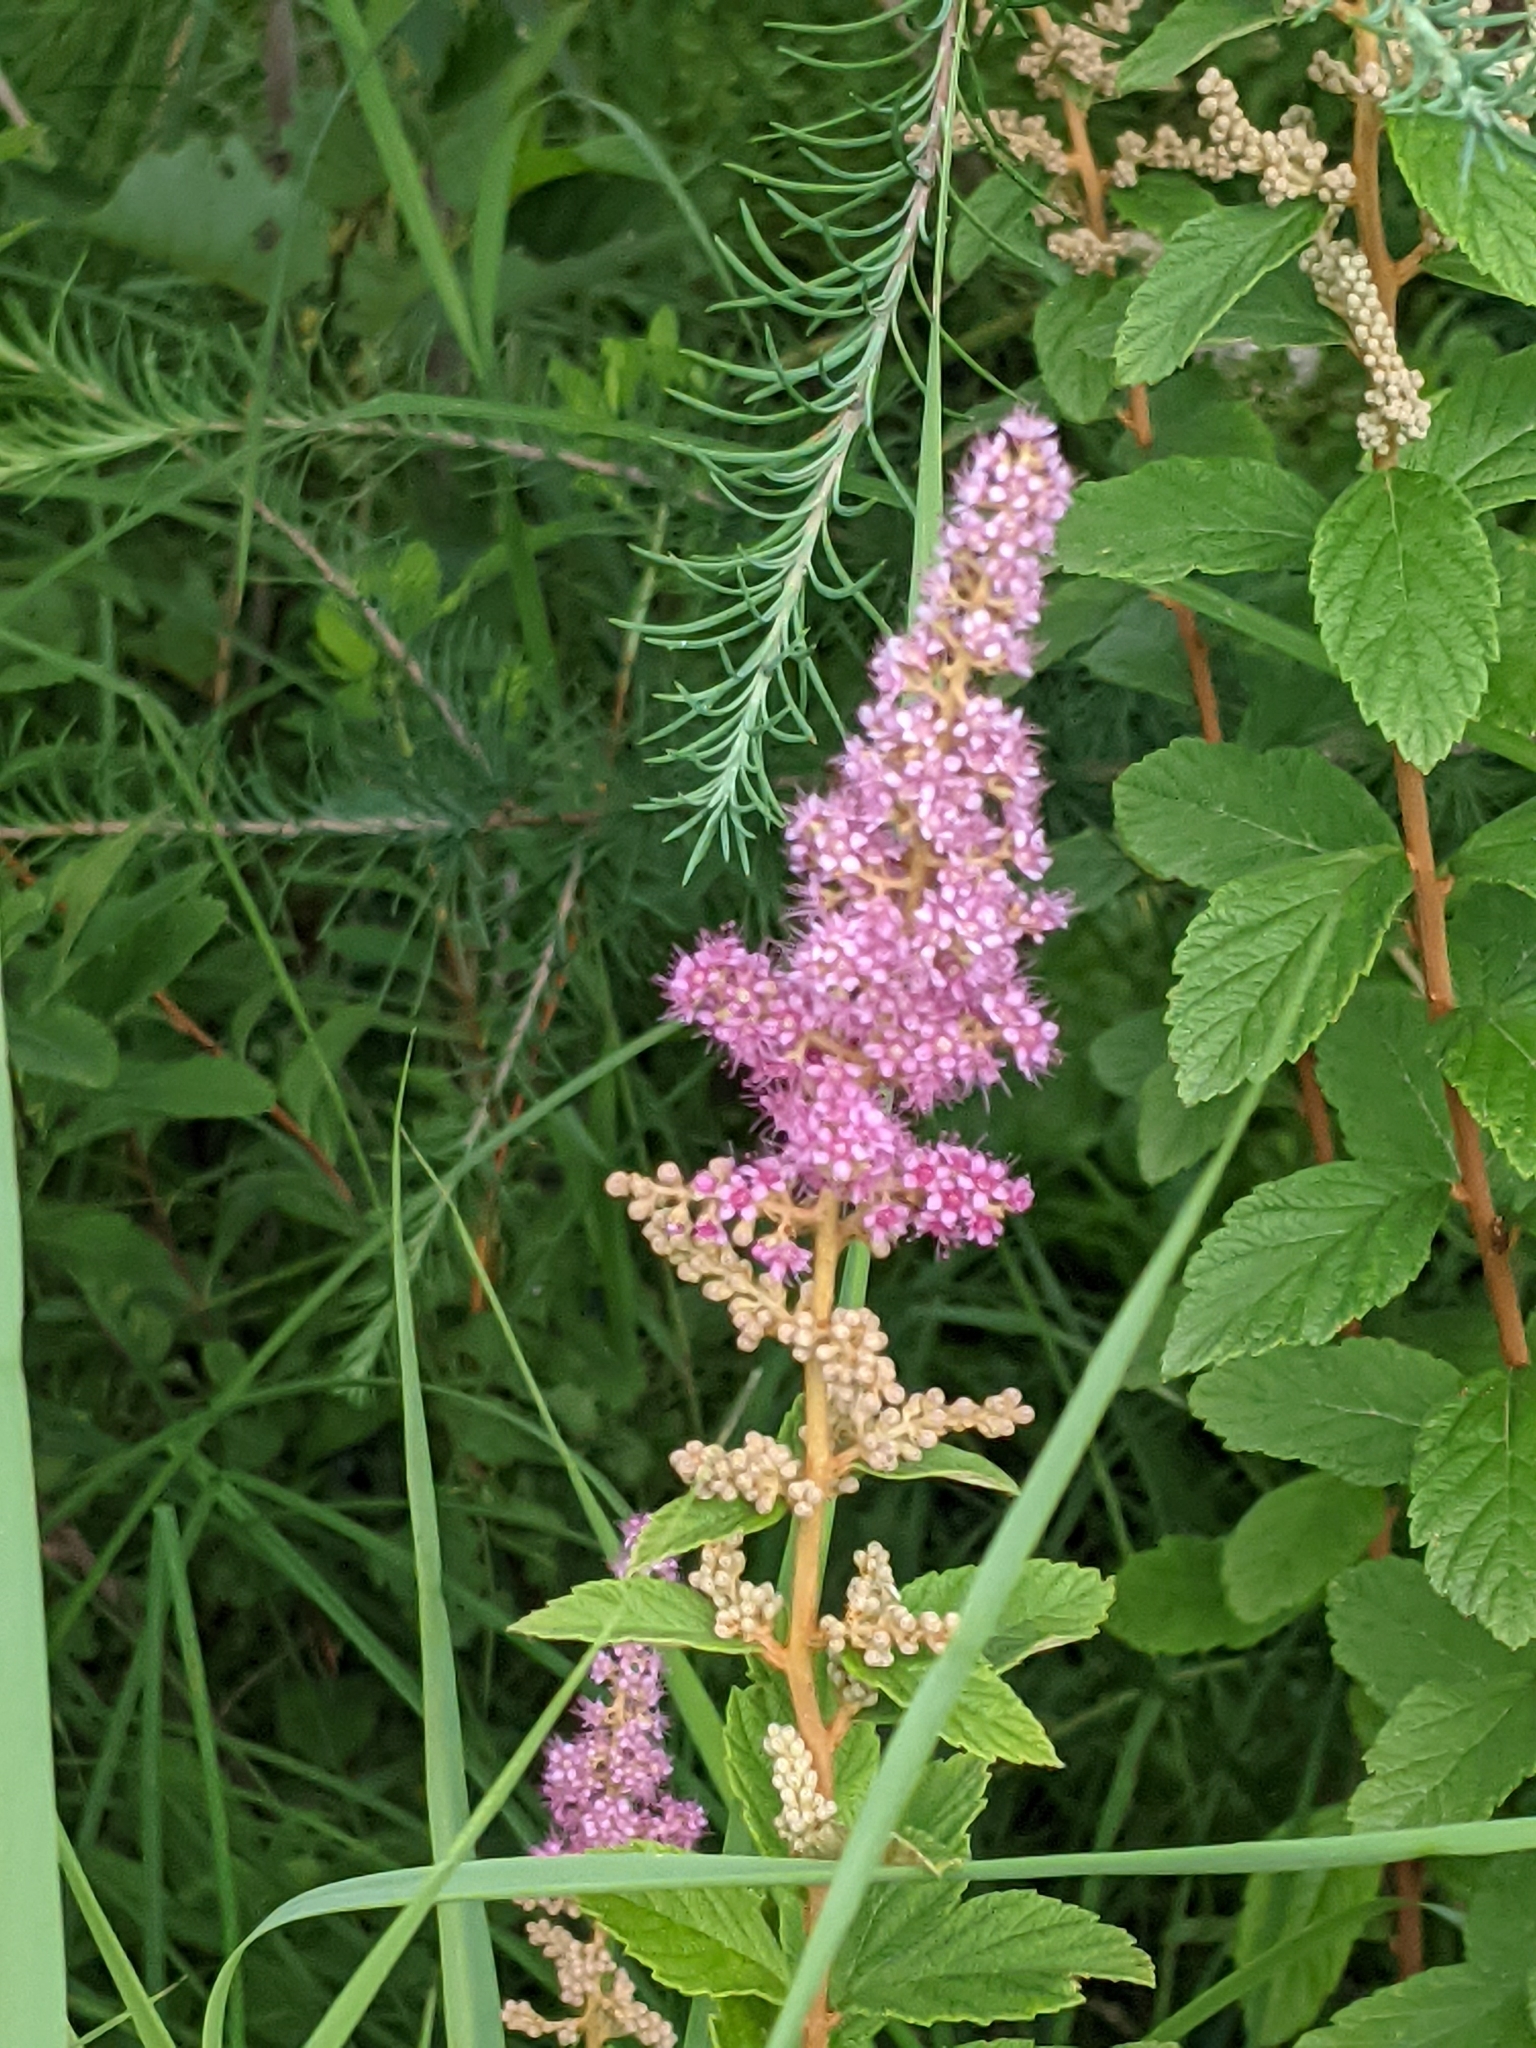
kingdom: Plantae
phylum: Tracheophyta
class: Magnoliopsida
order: Rosales
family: Rosaceae
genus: Spiraea
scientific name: Spiraea tomentosa
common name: Hardhack
